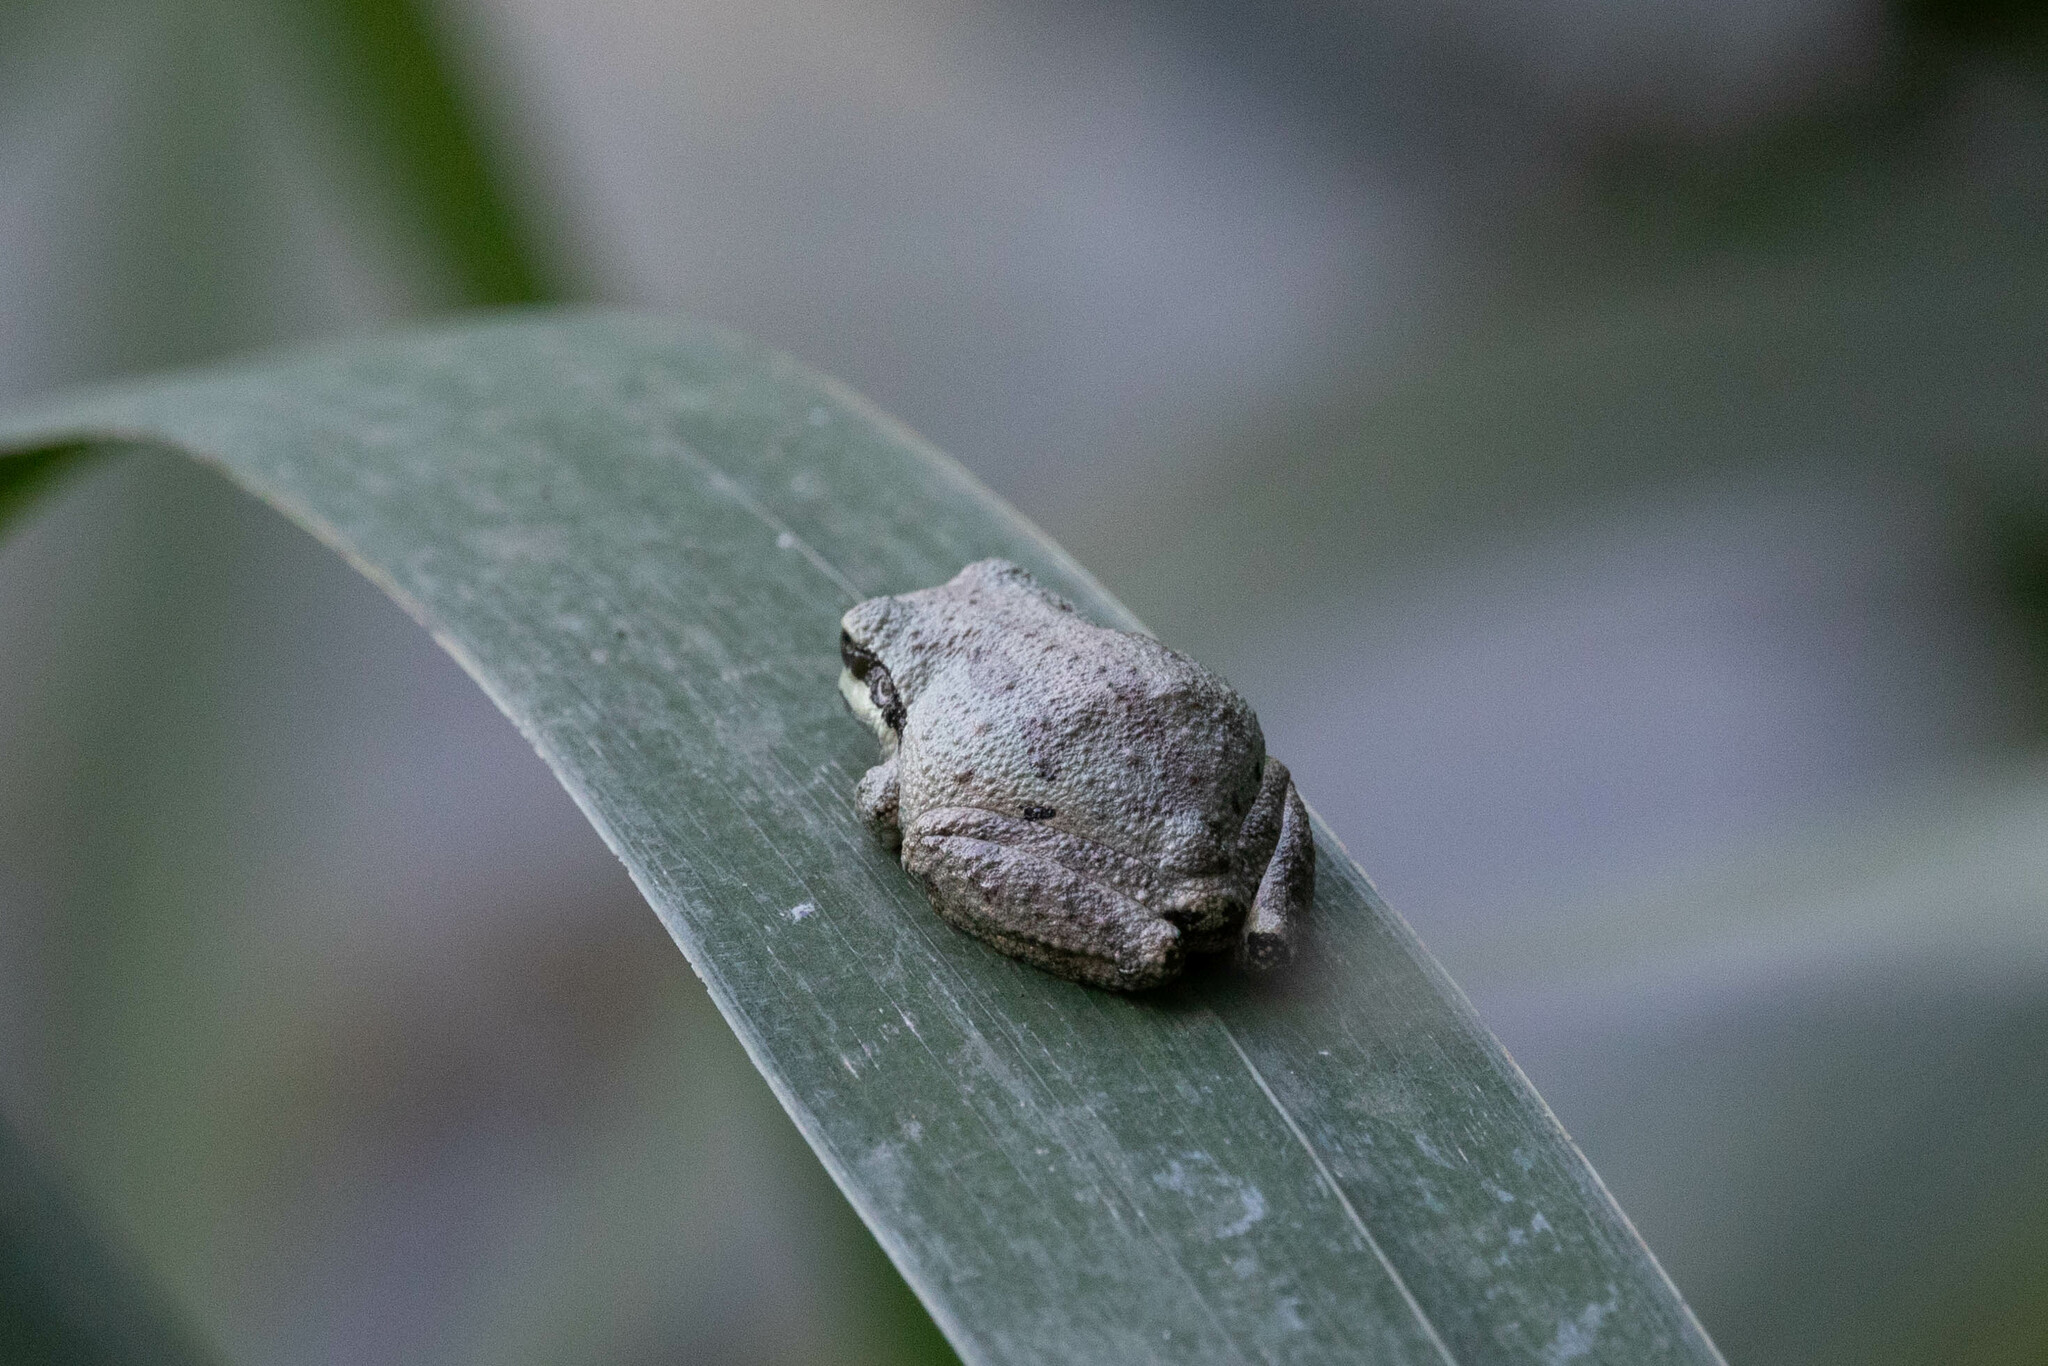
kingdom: Animalia
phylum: Chordata
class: Amphibia
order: Anura
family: Hylidae
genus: Pseudacris
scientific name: Pseudacris regilla
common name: Pacific chorus frog
